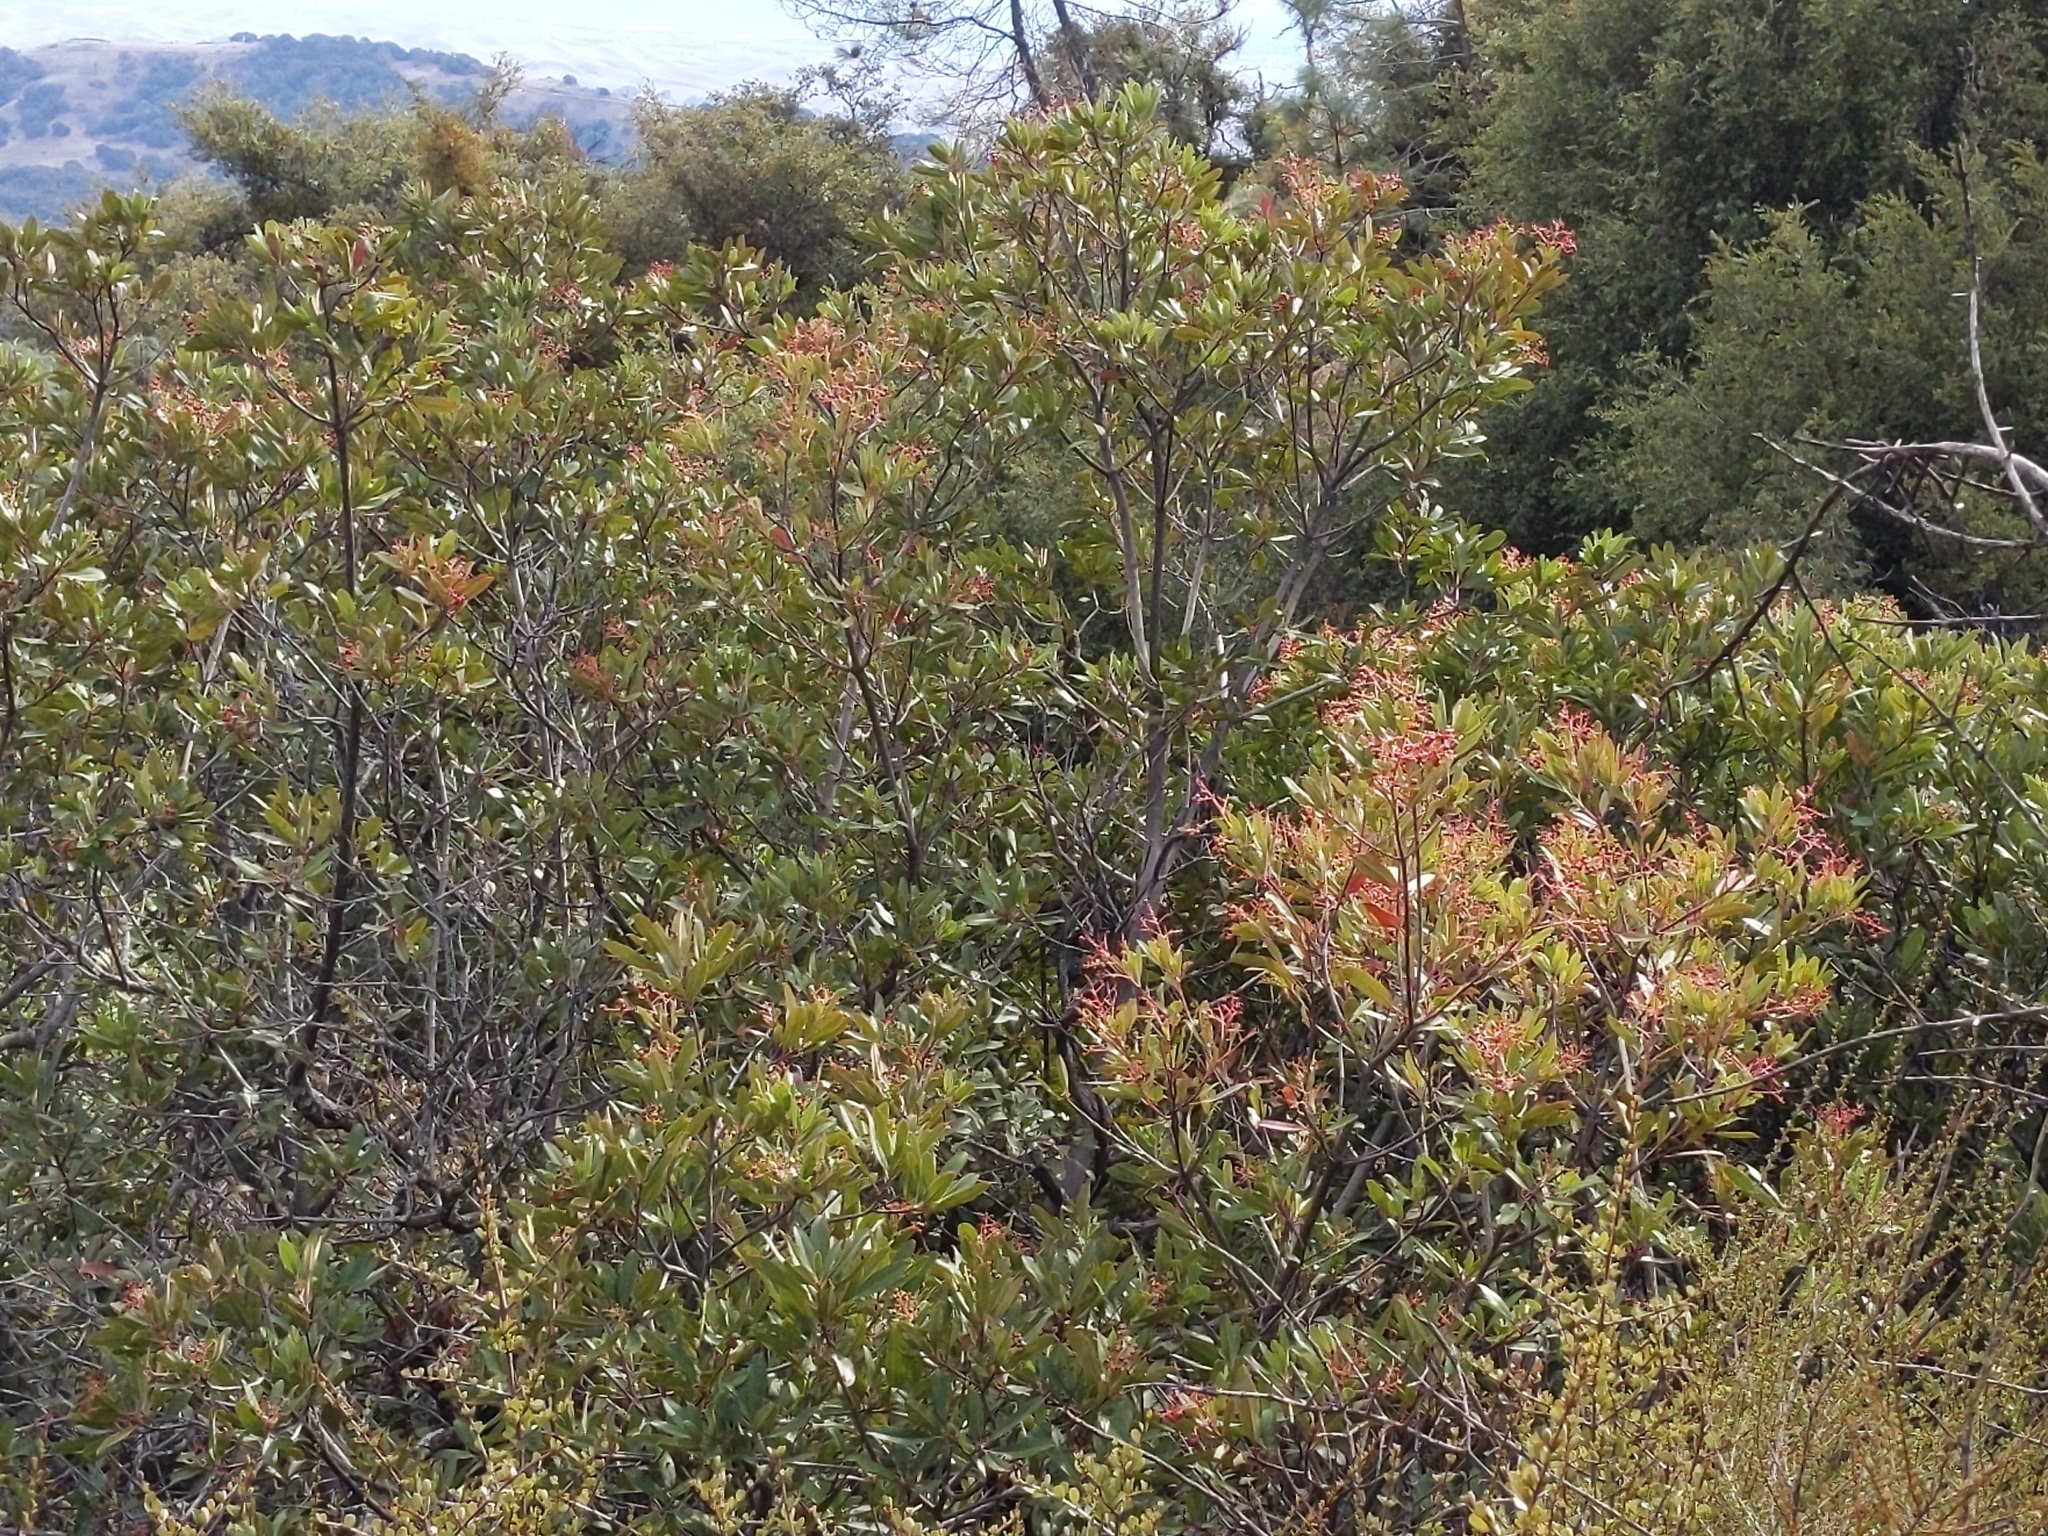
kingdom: Plantae
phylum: Tracheophyta
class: Magnoliopsida
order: Rosales
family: Rosaceae
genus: Heteromeles
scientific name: Heteromeles arbutifolia
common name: California-holly
